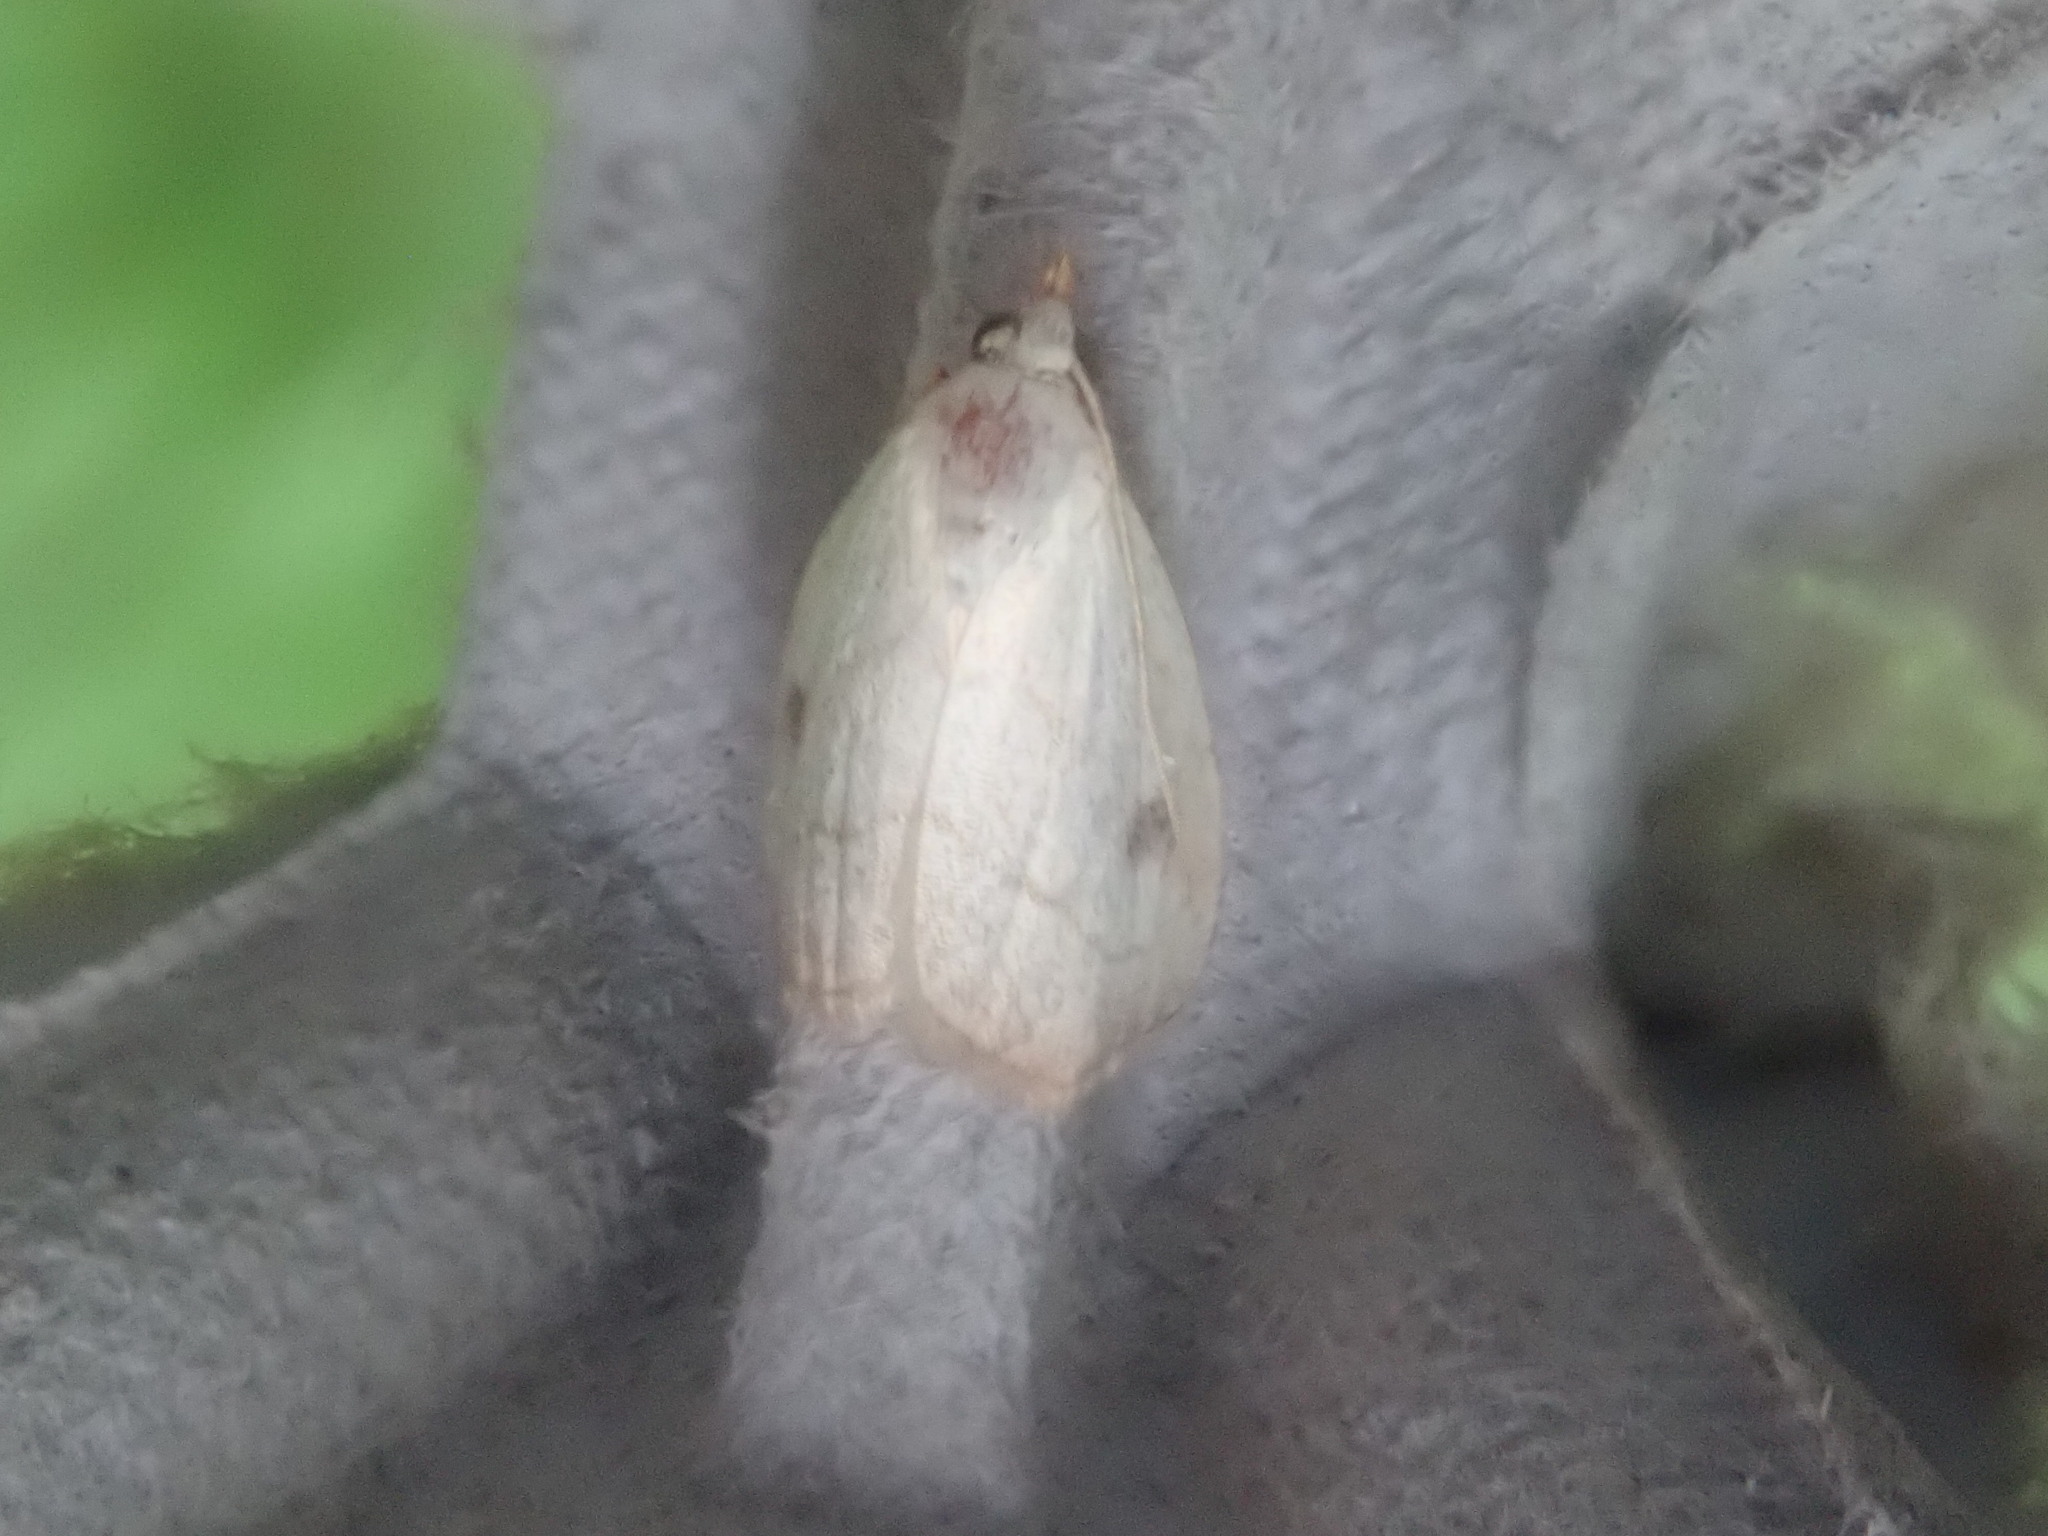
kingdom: Animalia
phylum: Arthropoda
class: Insecta
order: Lepidoptera
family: Erebidae
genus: Rivula
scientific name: Rivula propinqualis
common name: Spotted grass moth
